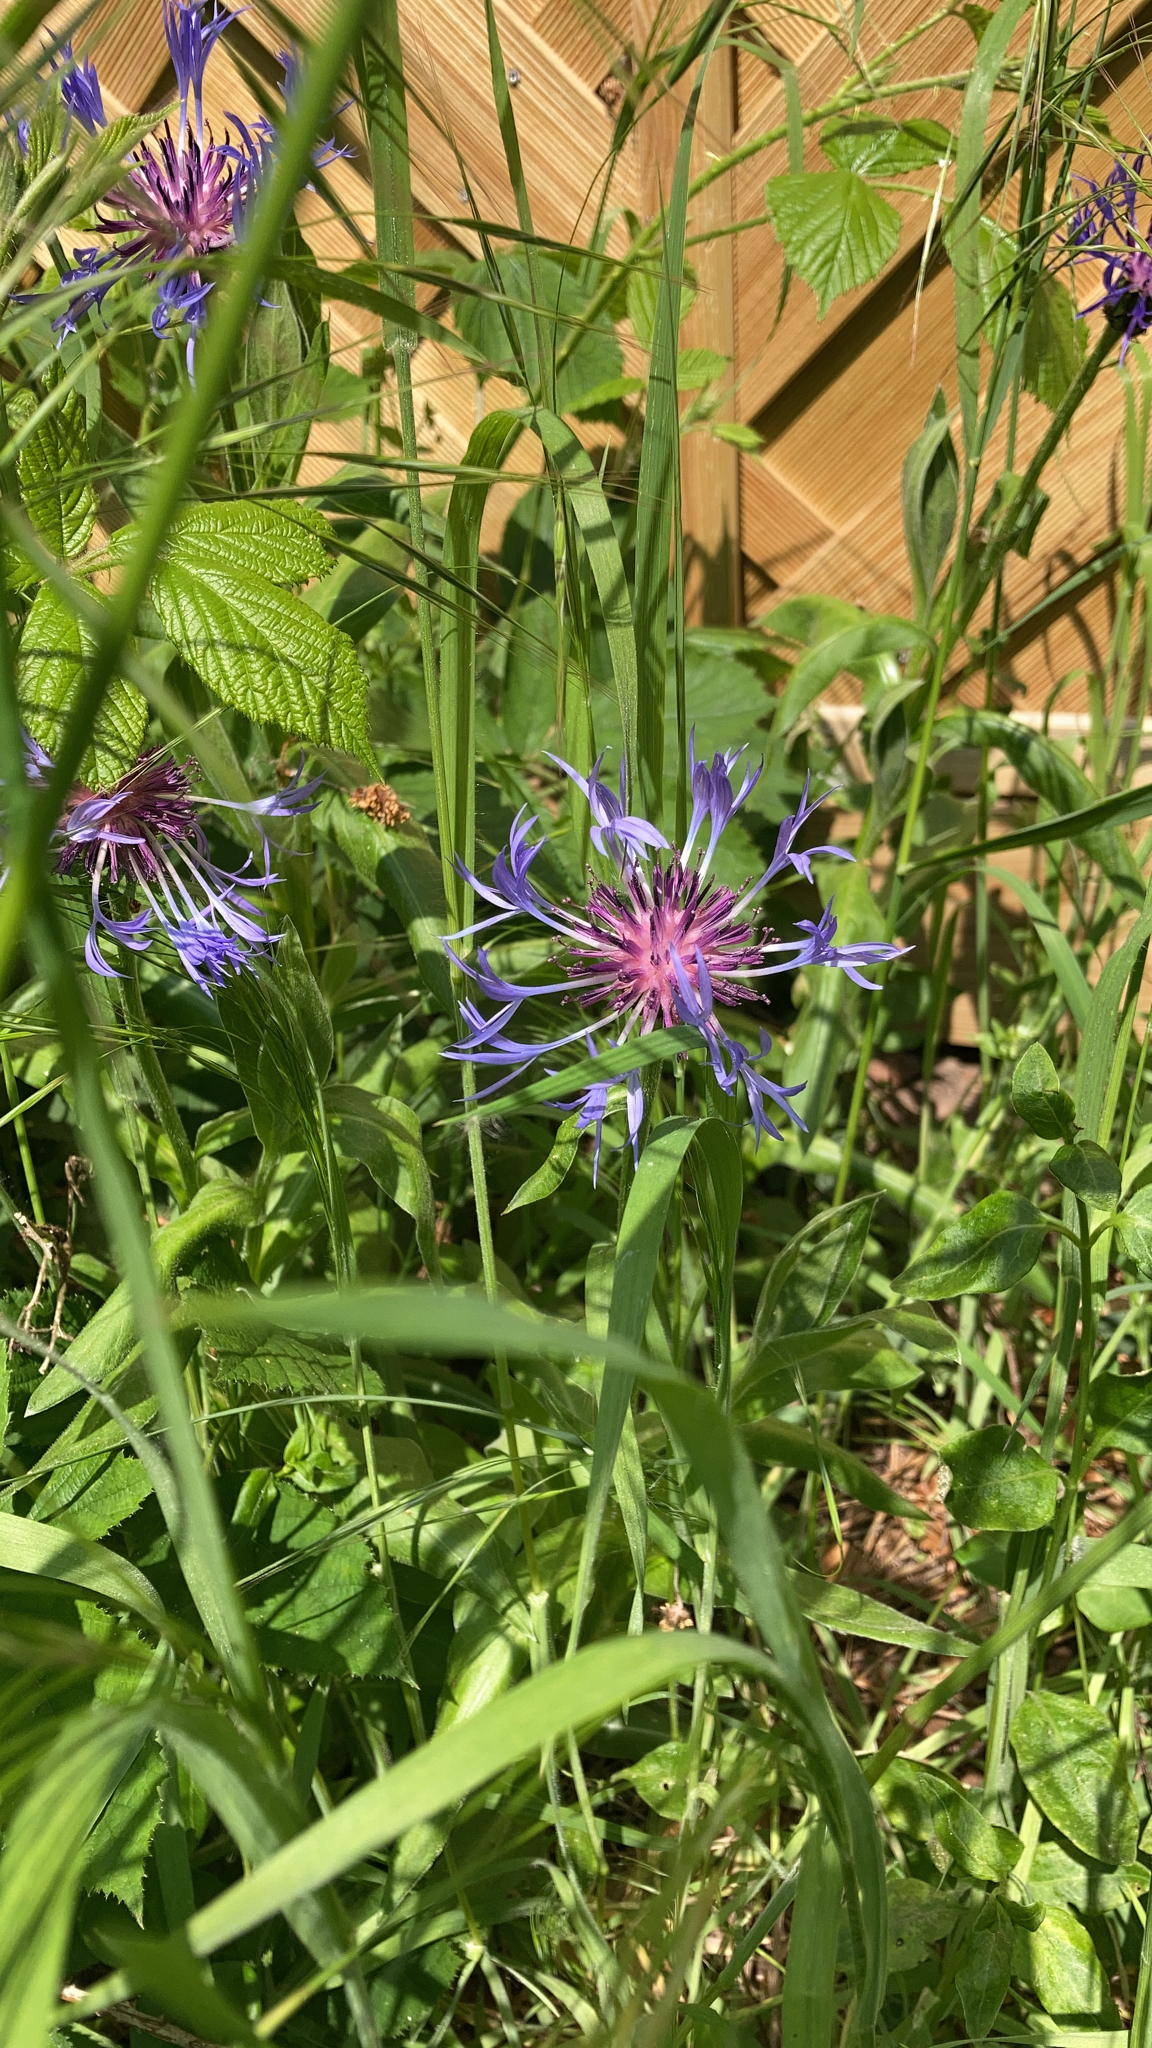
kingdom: Plantae
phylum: Tracheophyta
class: Magnoliopsida
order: Asterales
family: Asteraceae
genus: Centaurea
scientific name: Centaurea montana
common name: Perennial cornflower
